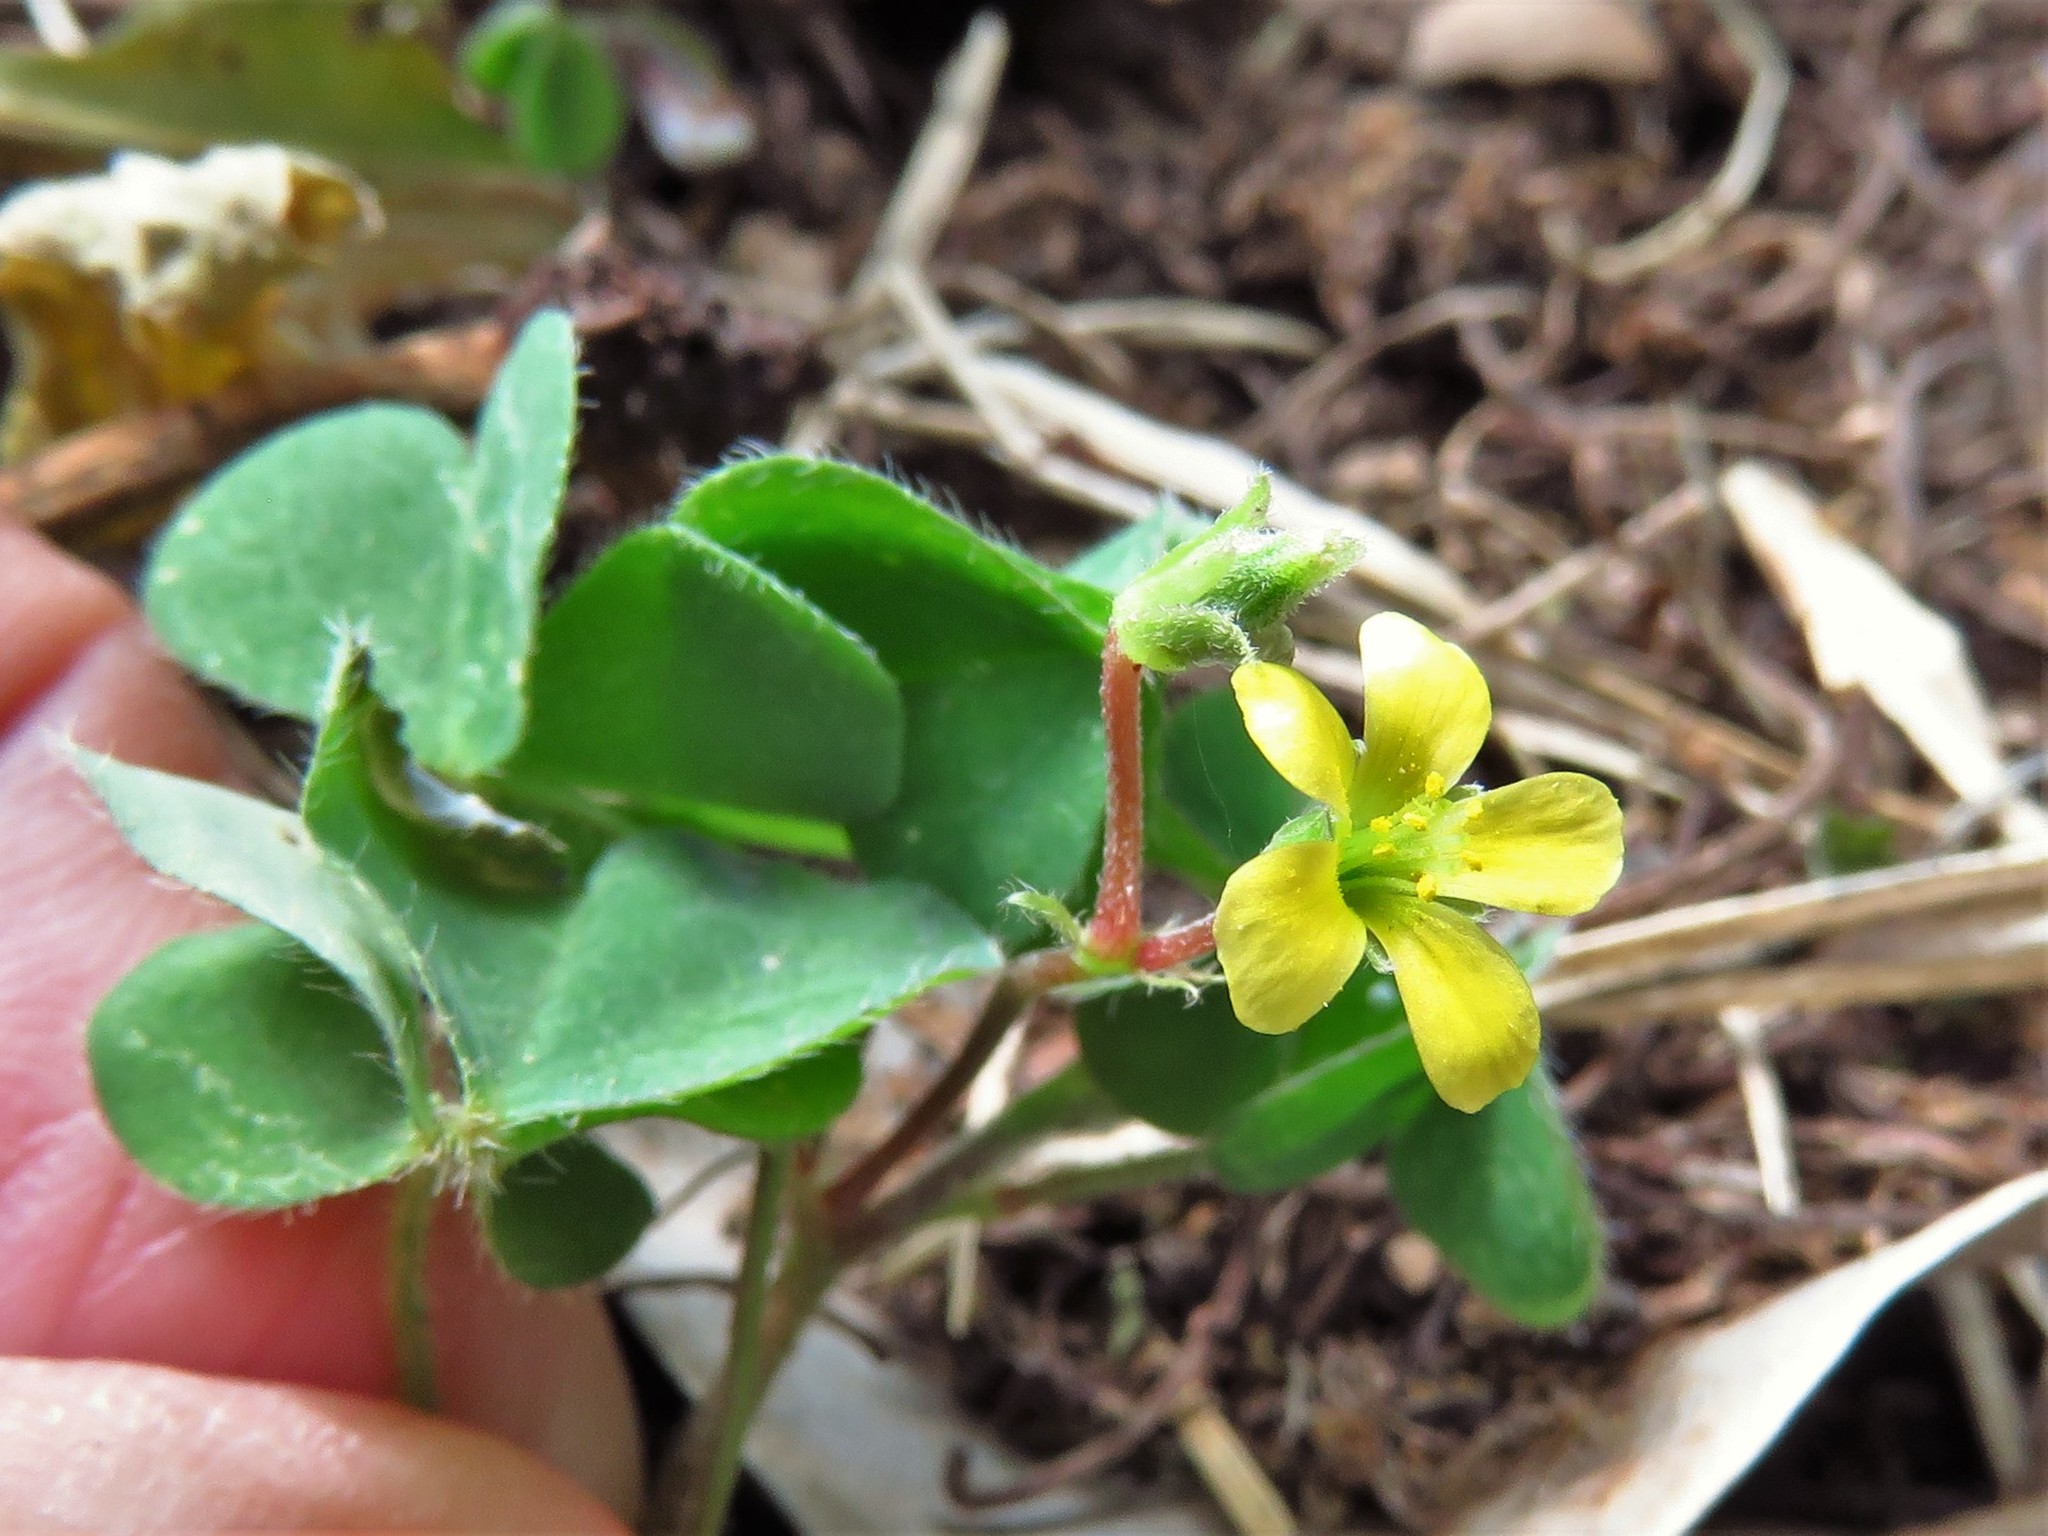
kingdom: Plantae
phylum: Tracheophyta
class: Magnoliopsida
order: Oxalidales
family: Oxalidaceae
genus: Oxalis
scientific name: Oxalis corniculata
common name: Procumbent yellow-sorrel
